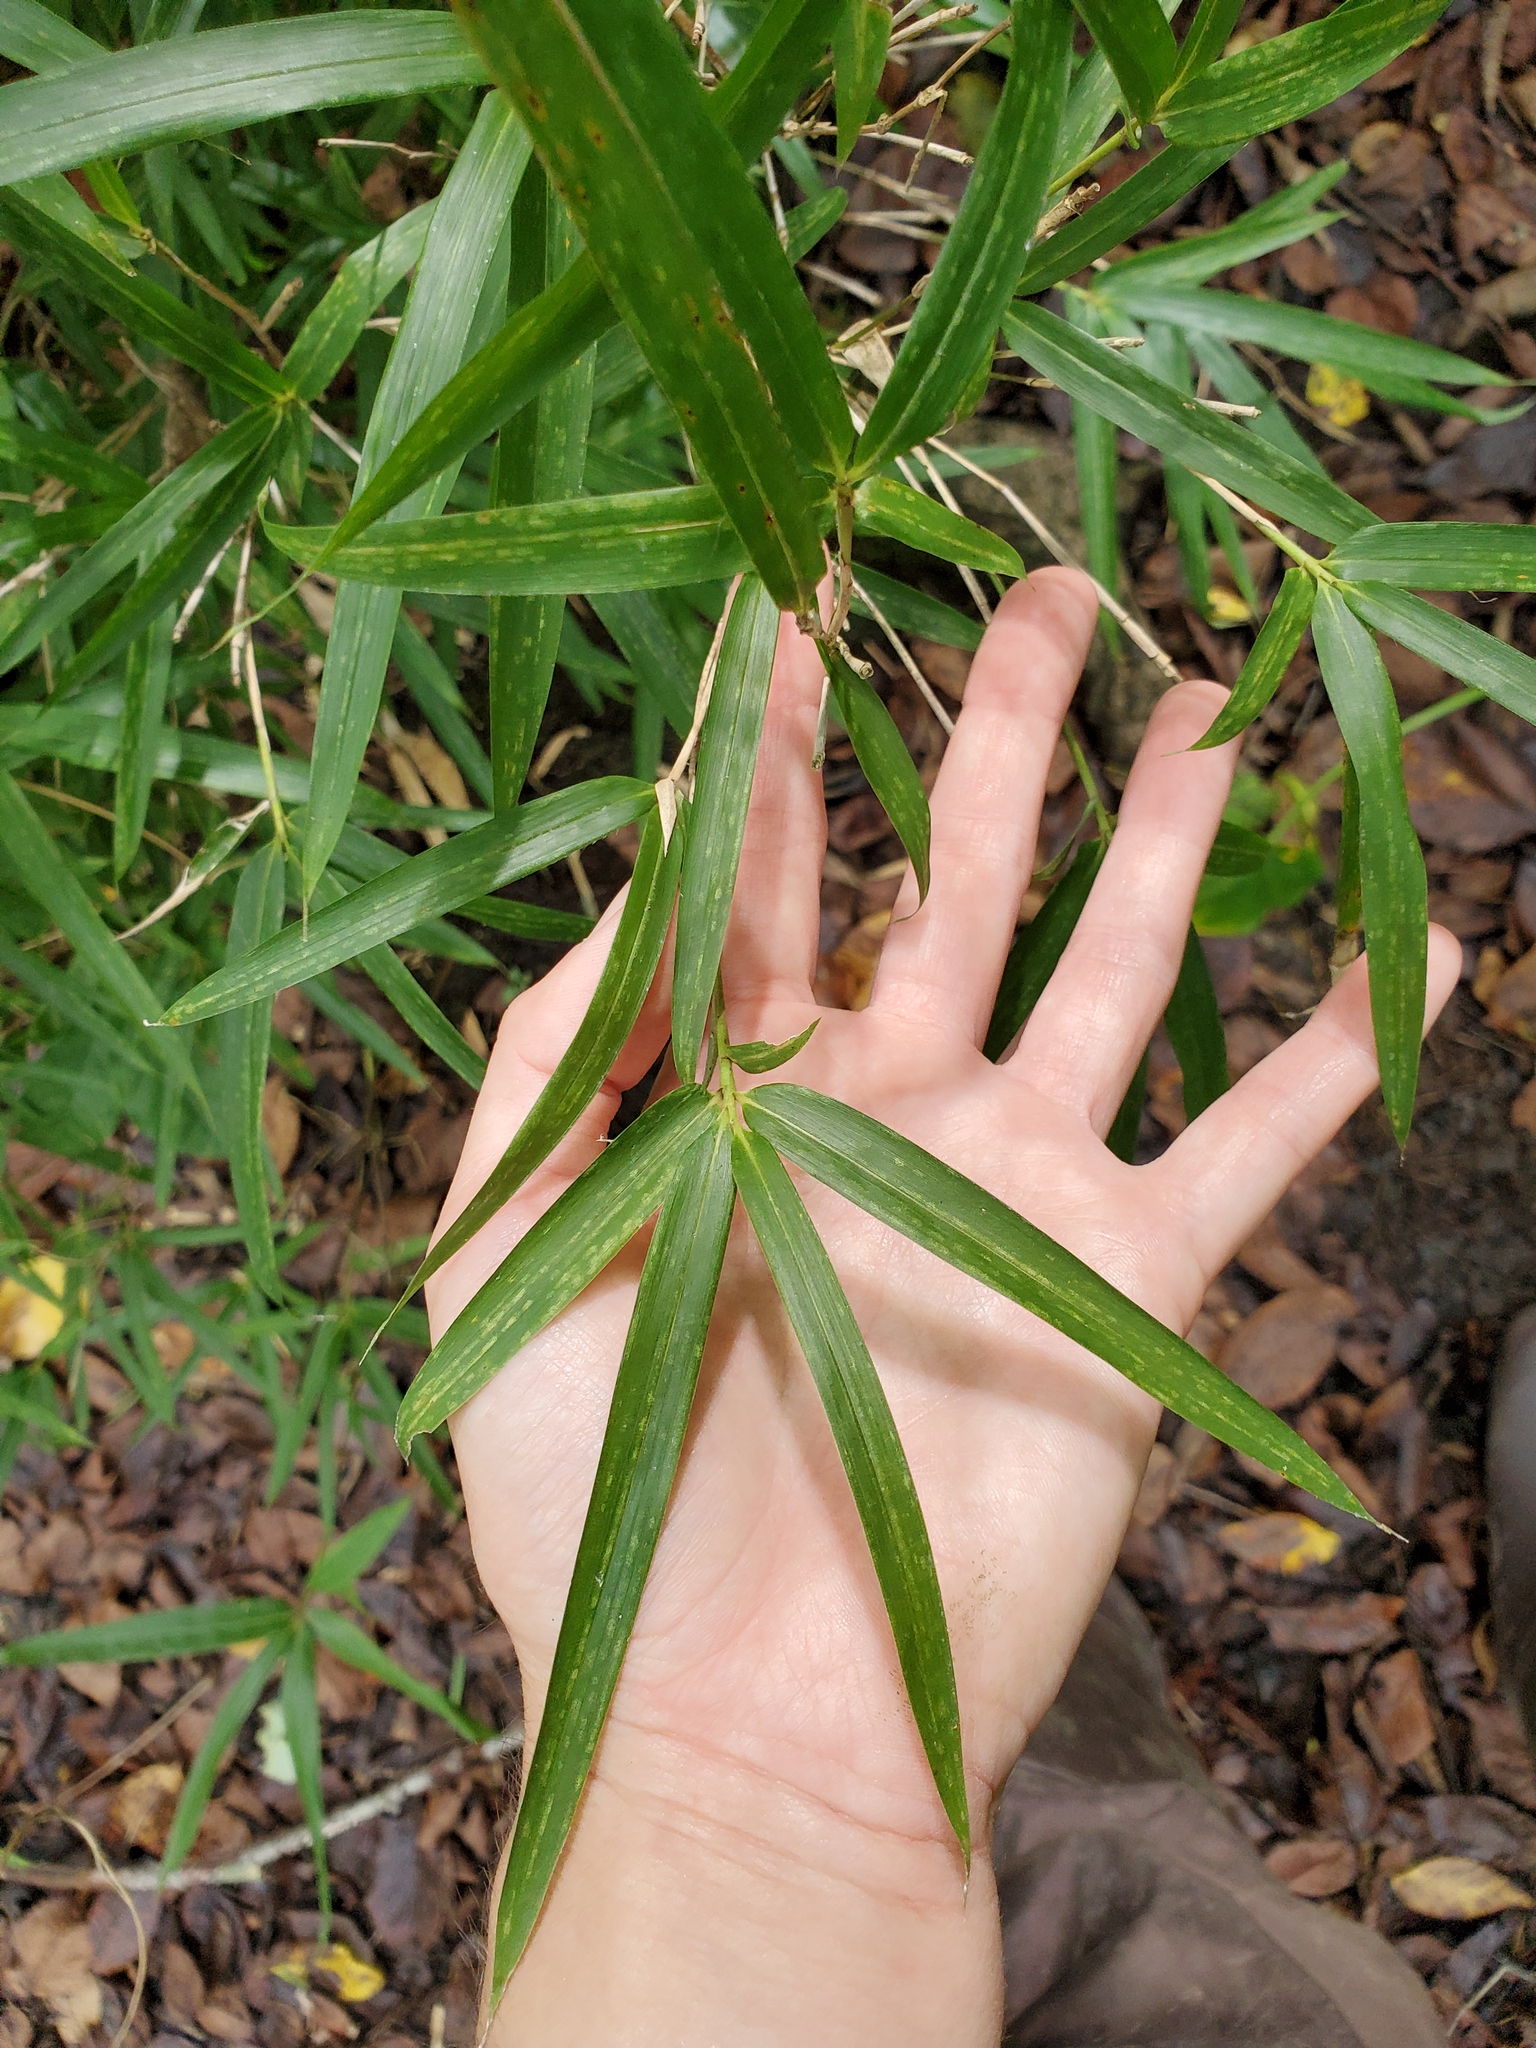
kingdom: Plantae
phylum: Tracheophyta
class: Liliopsida
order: Poales
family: Poaceae
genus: Arundinaria
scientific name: Arundinaria gigantea
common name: Giant cane
